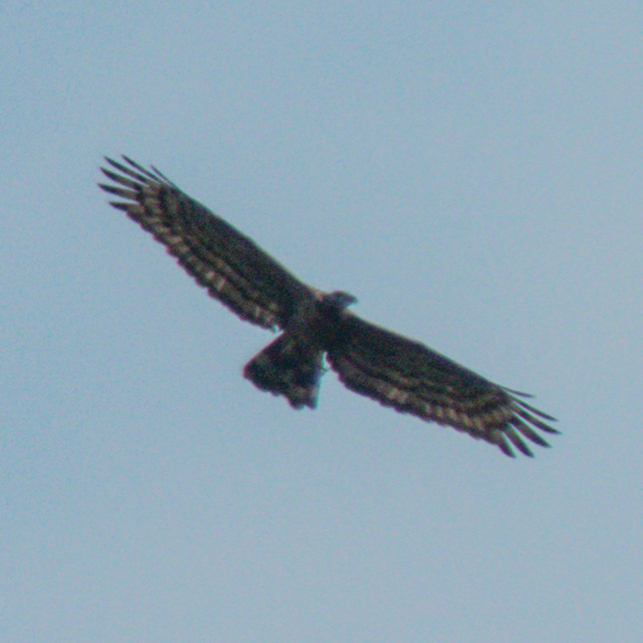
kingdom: Animalia
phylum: Chordata
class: Aves
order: Accipitriformes
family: Accipitridae
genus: Pernis
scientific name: Pernis ptilorhynchus
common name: Crested honey buzzard
